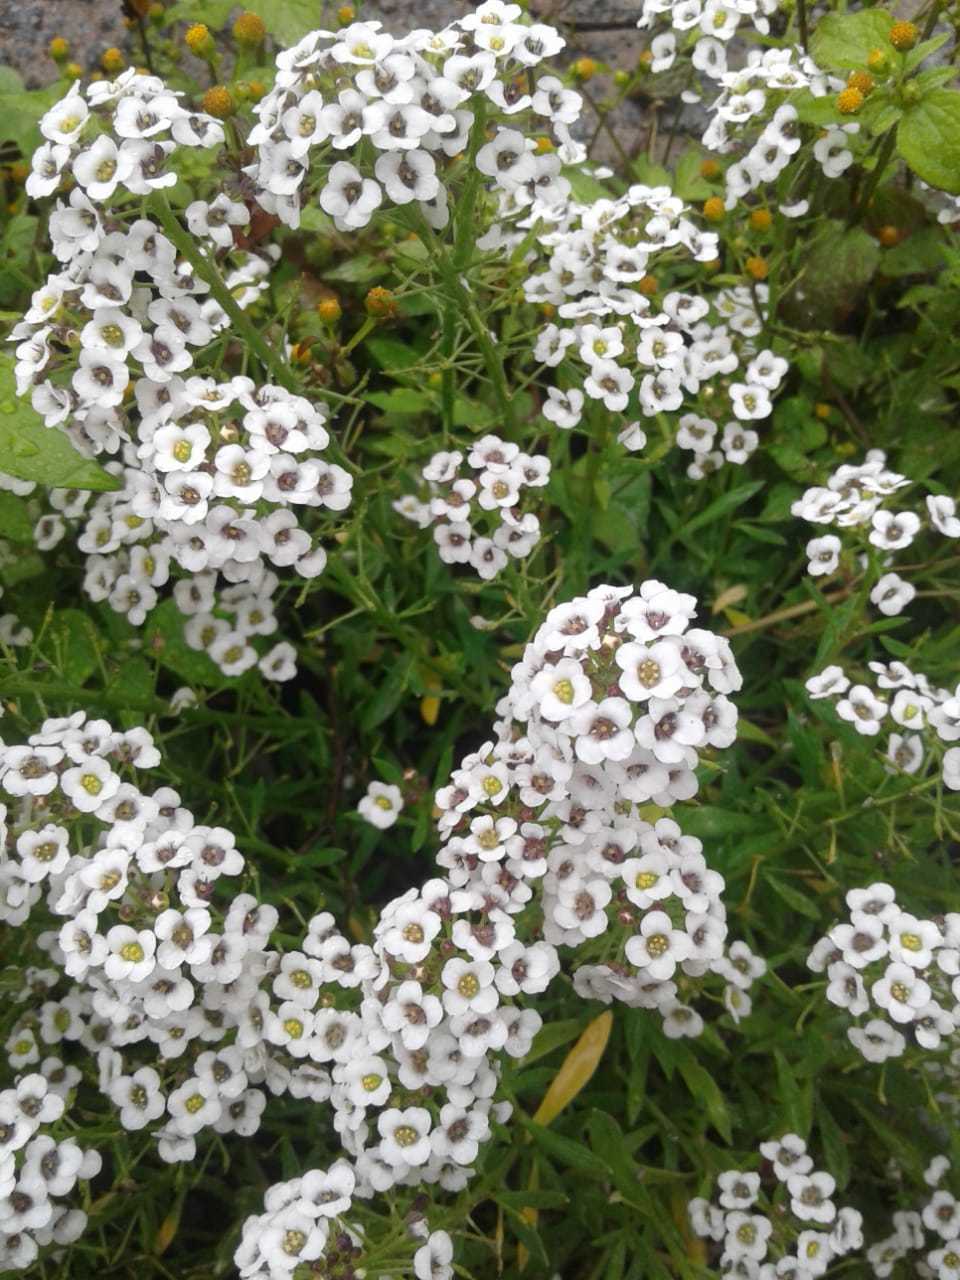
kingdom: Plantae
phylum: Tracheophyta
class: Magnoliopsida
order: Brassicales
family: Brassicaceae
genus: Lobularia
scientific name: Lobularia maritima
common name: Sweet alison
